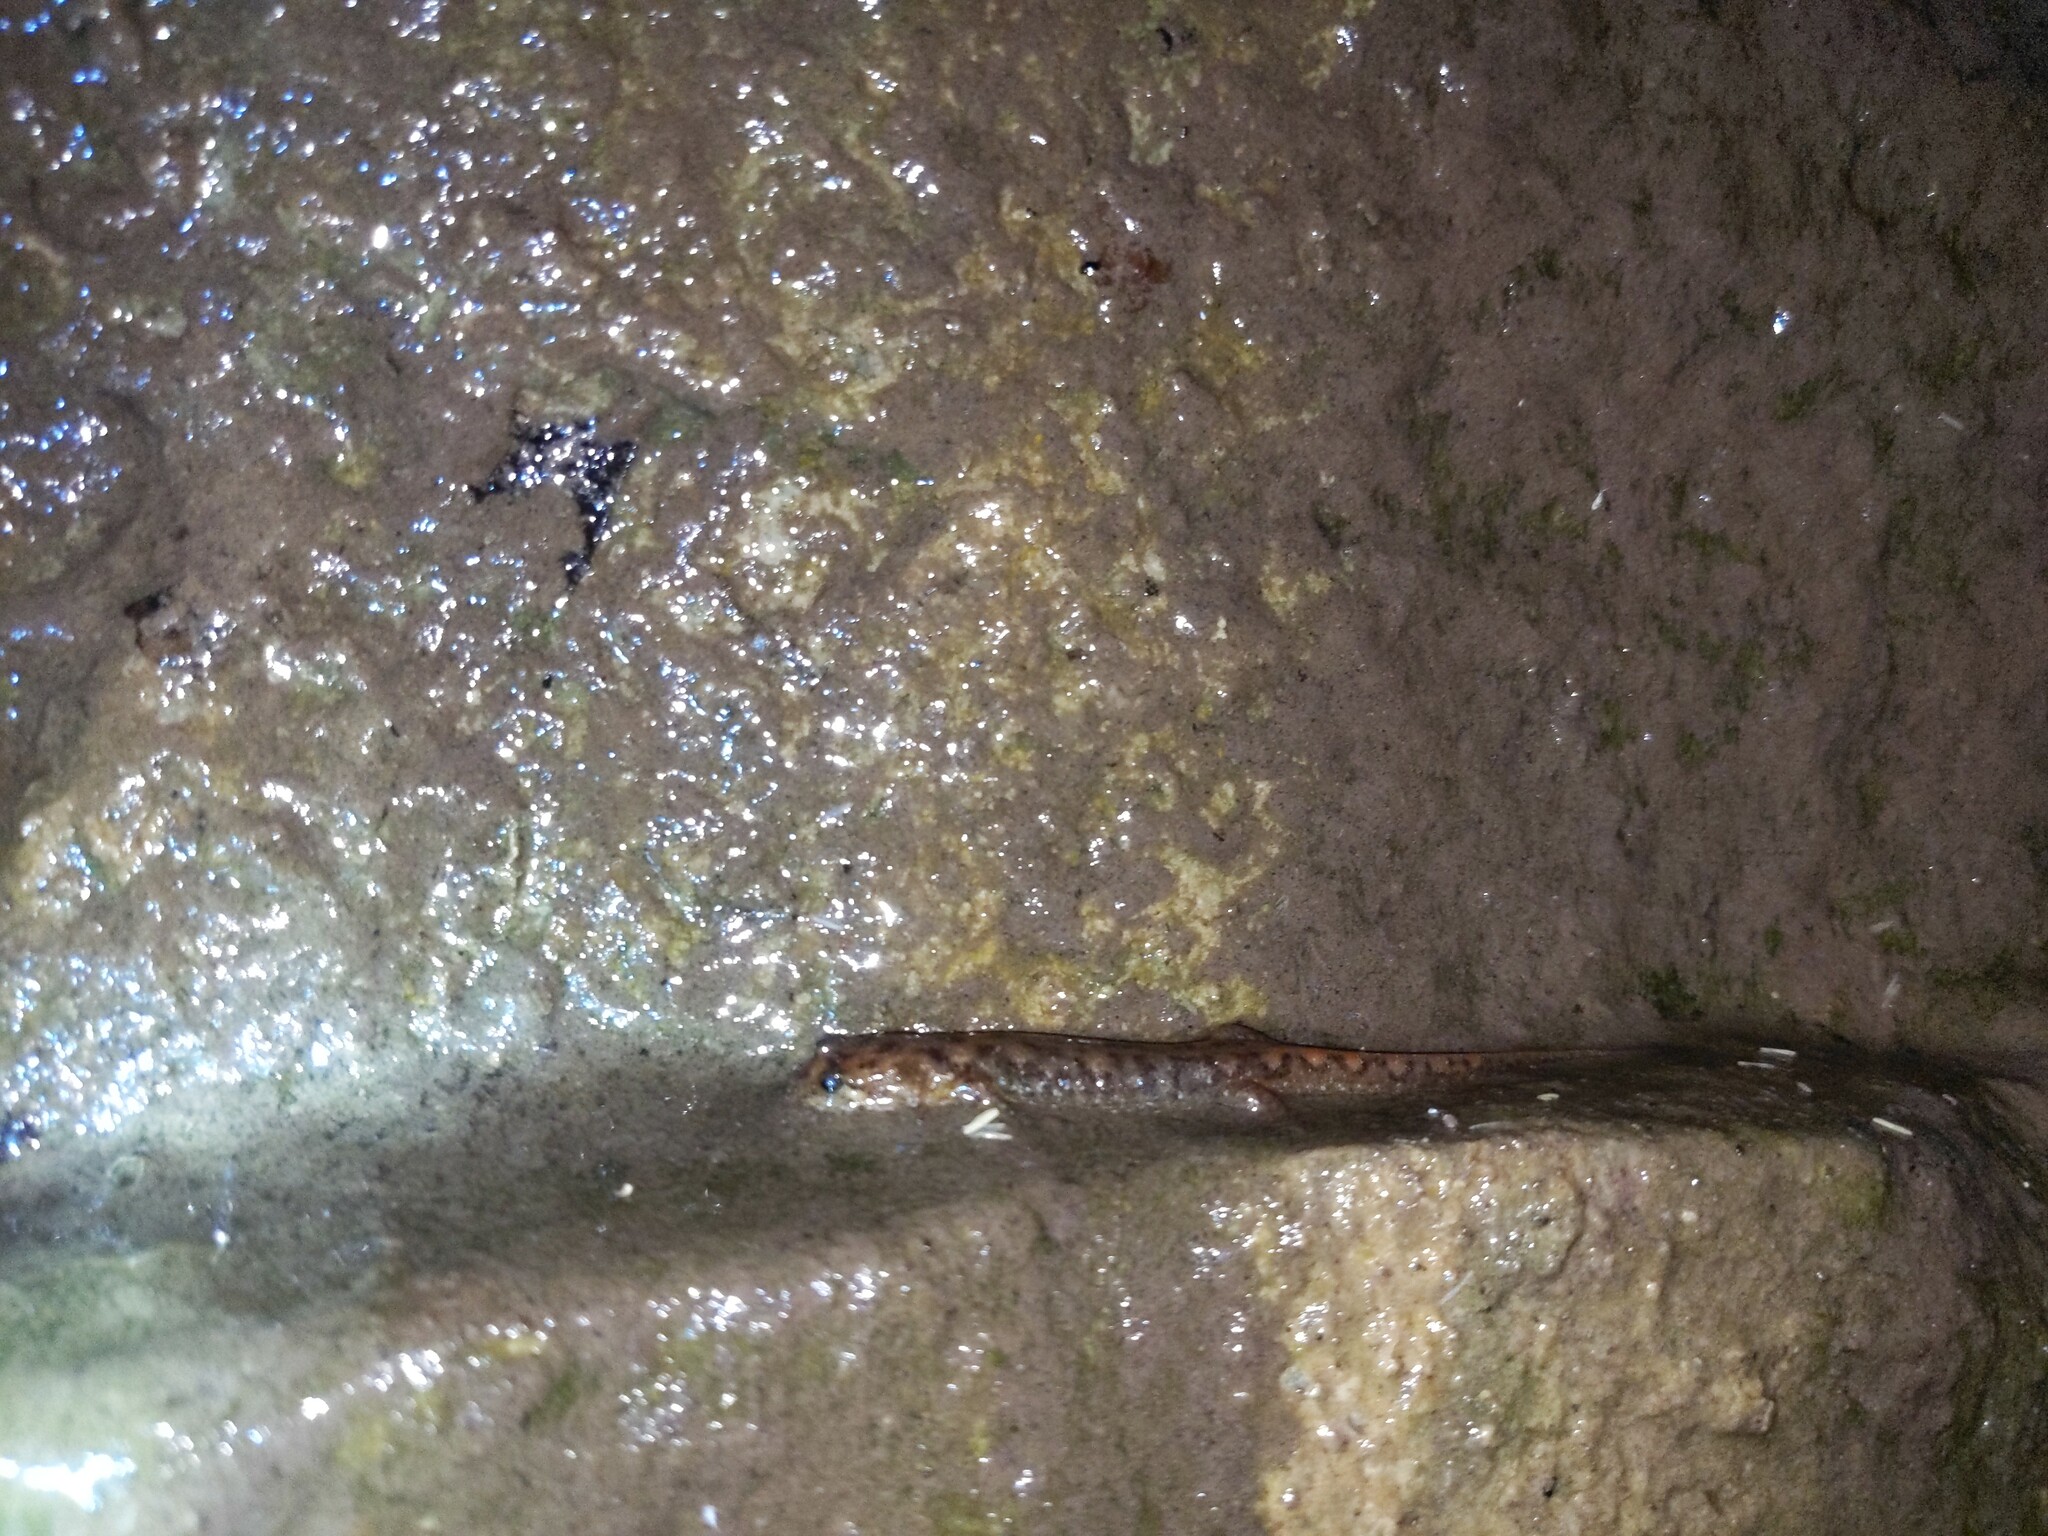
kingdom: Animalia
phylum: Chordata
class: Amphibia
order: Caudata
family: Plethodontidae
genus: Desmognathus
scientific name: Desmognathus monticola
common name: Seal salamander
